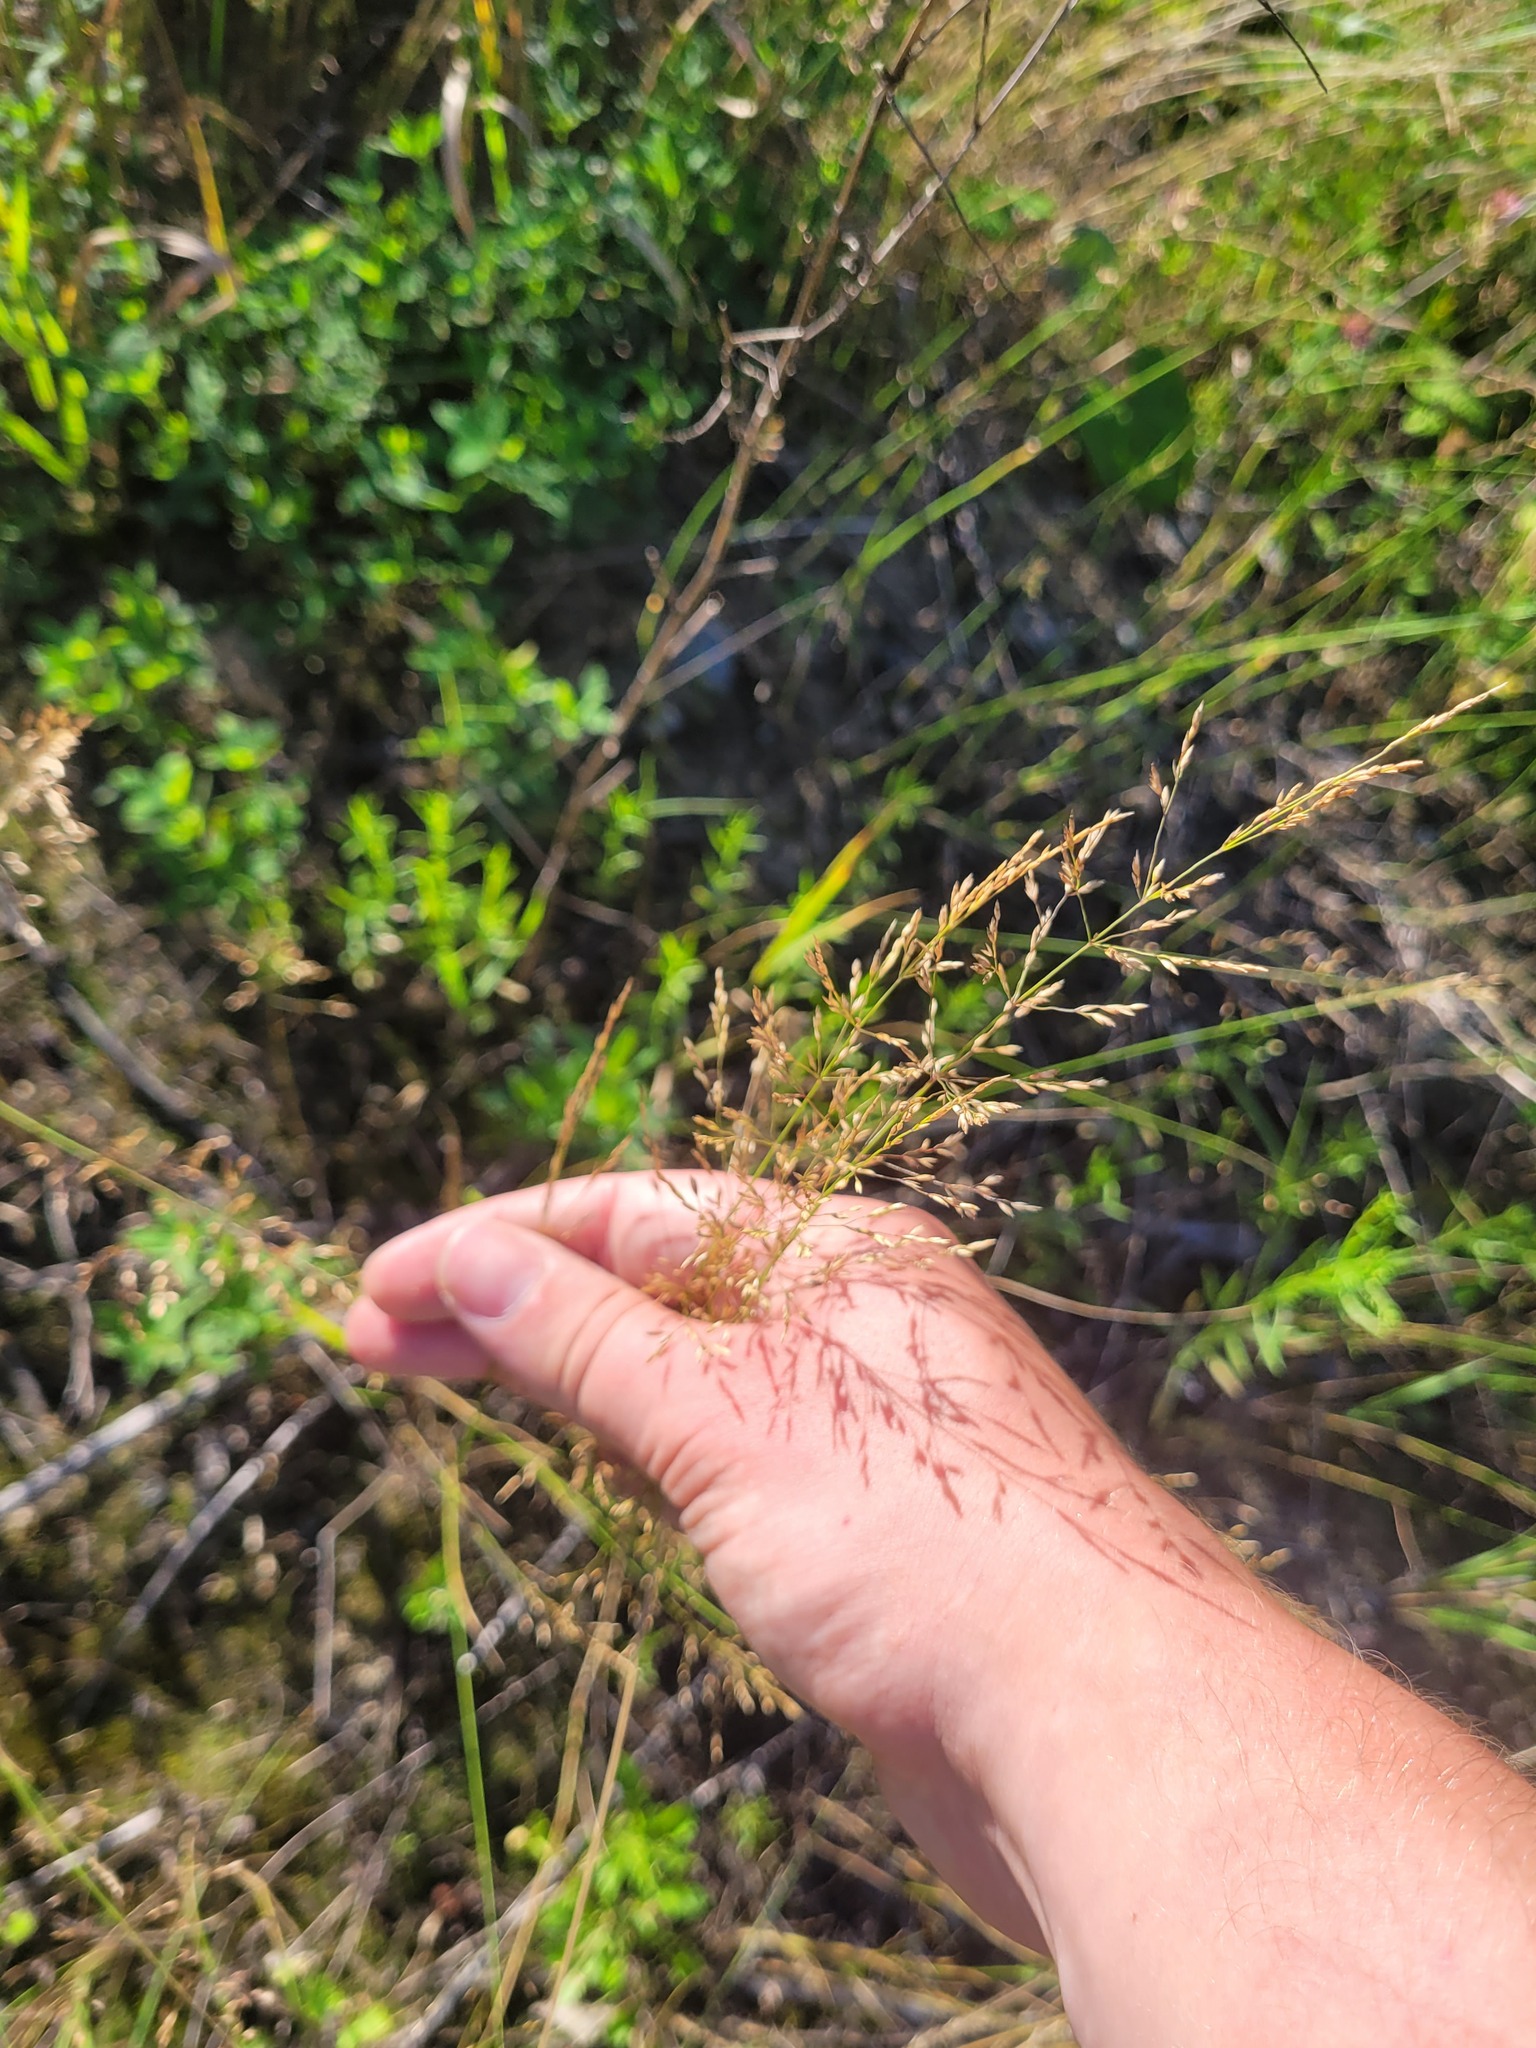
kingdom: Plantae
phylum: Tracheophyta
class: Liliopsida
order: Poales
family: Poaceae
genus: Poa
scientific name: Poa palustris
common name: Swamp meadow-grass
